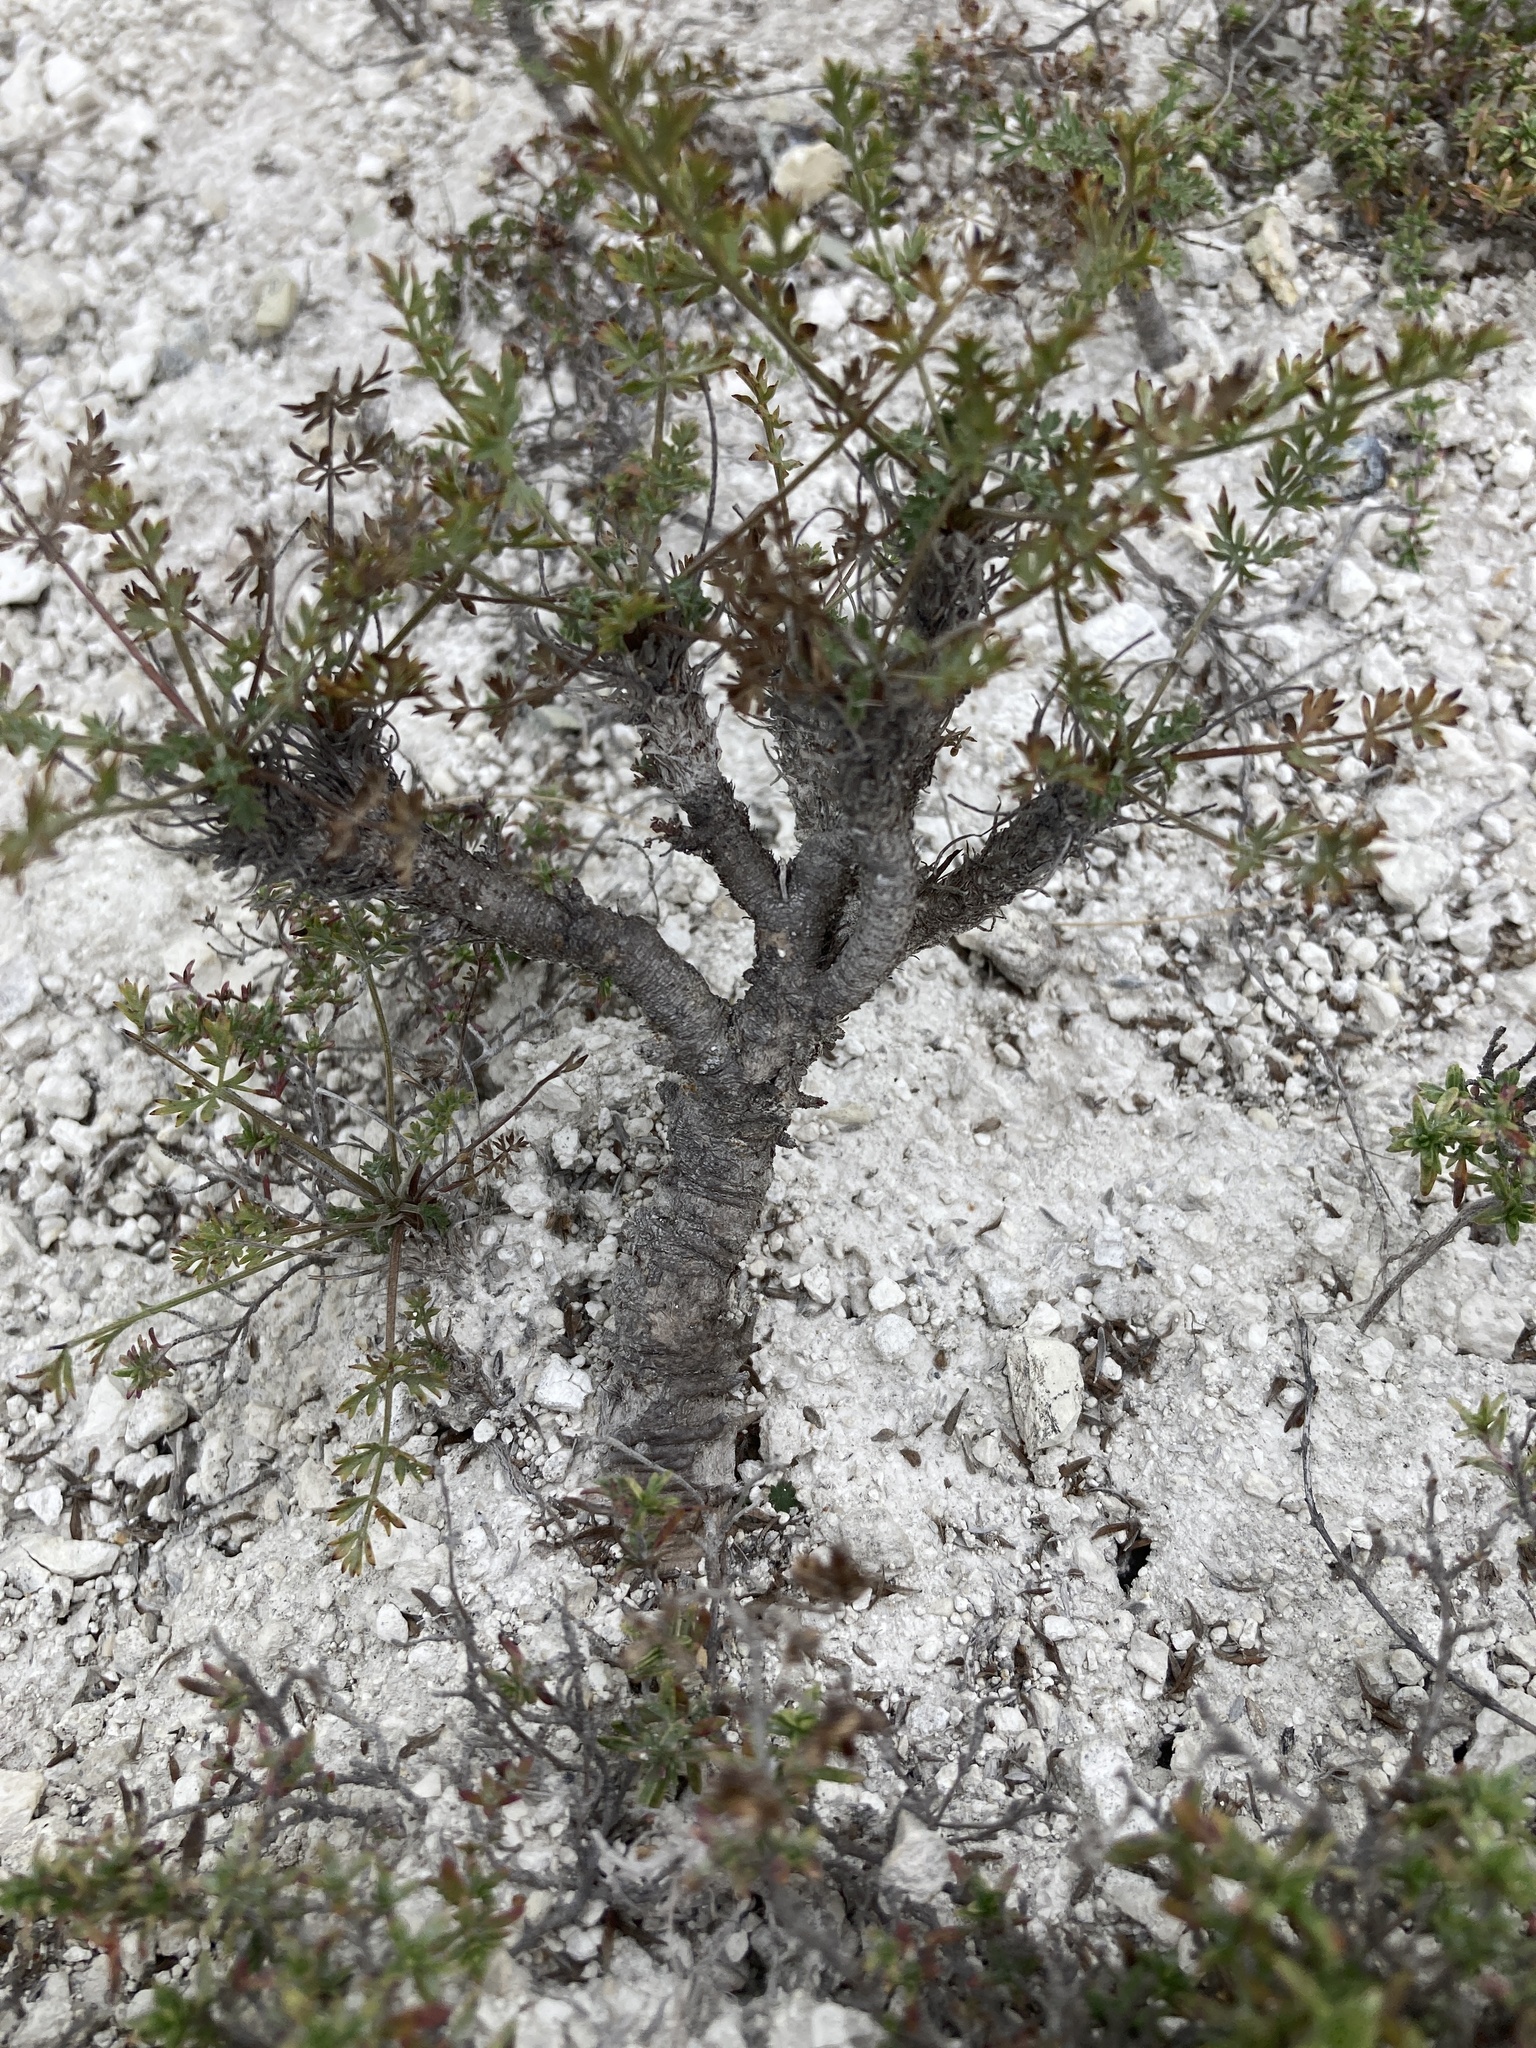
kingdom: Plantae
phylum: Tracheophyta
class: Magnoliopsida
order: Apiales
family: Apiaceae
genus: Pimpinella
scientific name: Pimpinella tragium
